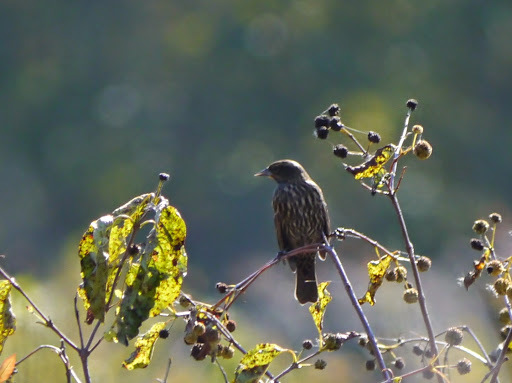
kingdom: Animalia
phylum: Chordata
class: Aves
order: Passeriformes
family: Icteridae
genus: Agelaius
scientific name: Agelaius phoeniceus
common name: Red-winged blackbird
